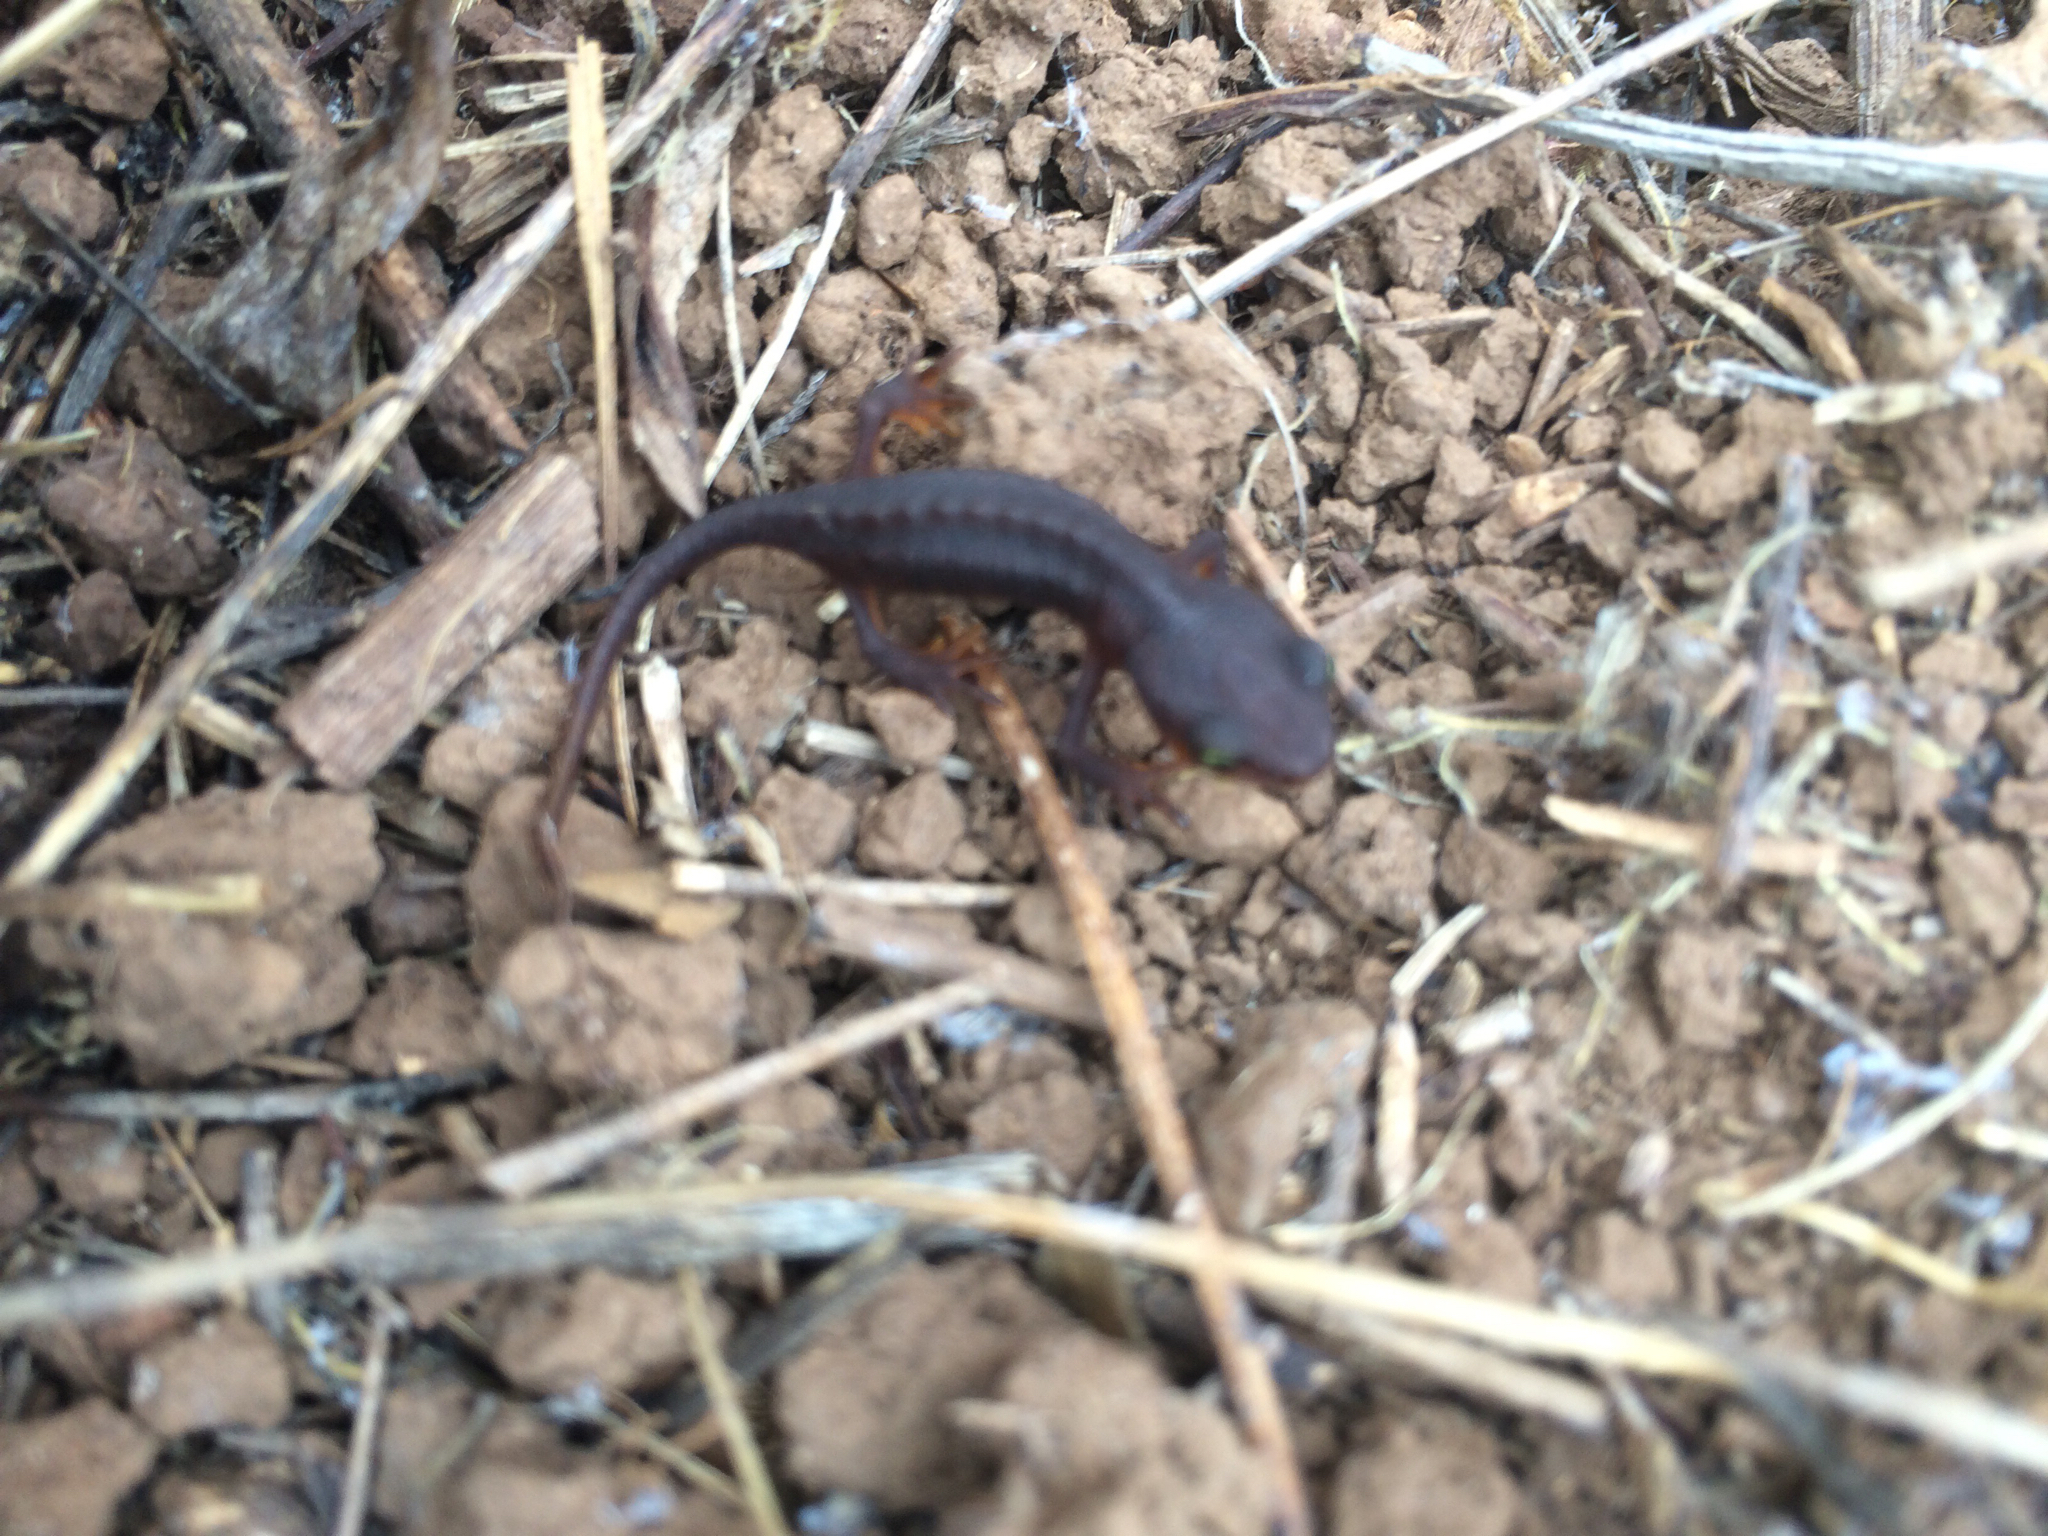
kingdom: Animalia
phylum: Chordata
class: Amphibia
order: Caudata
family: Salamandridae
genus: Taricha
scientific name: Taricha torosa
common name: California newt
